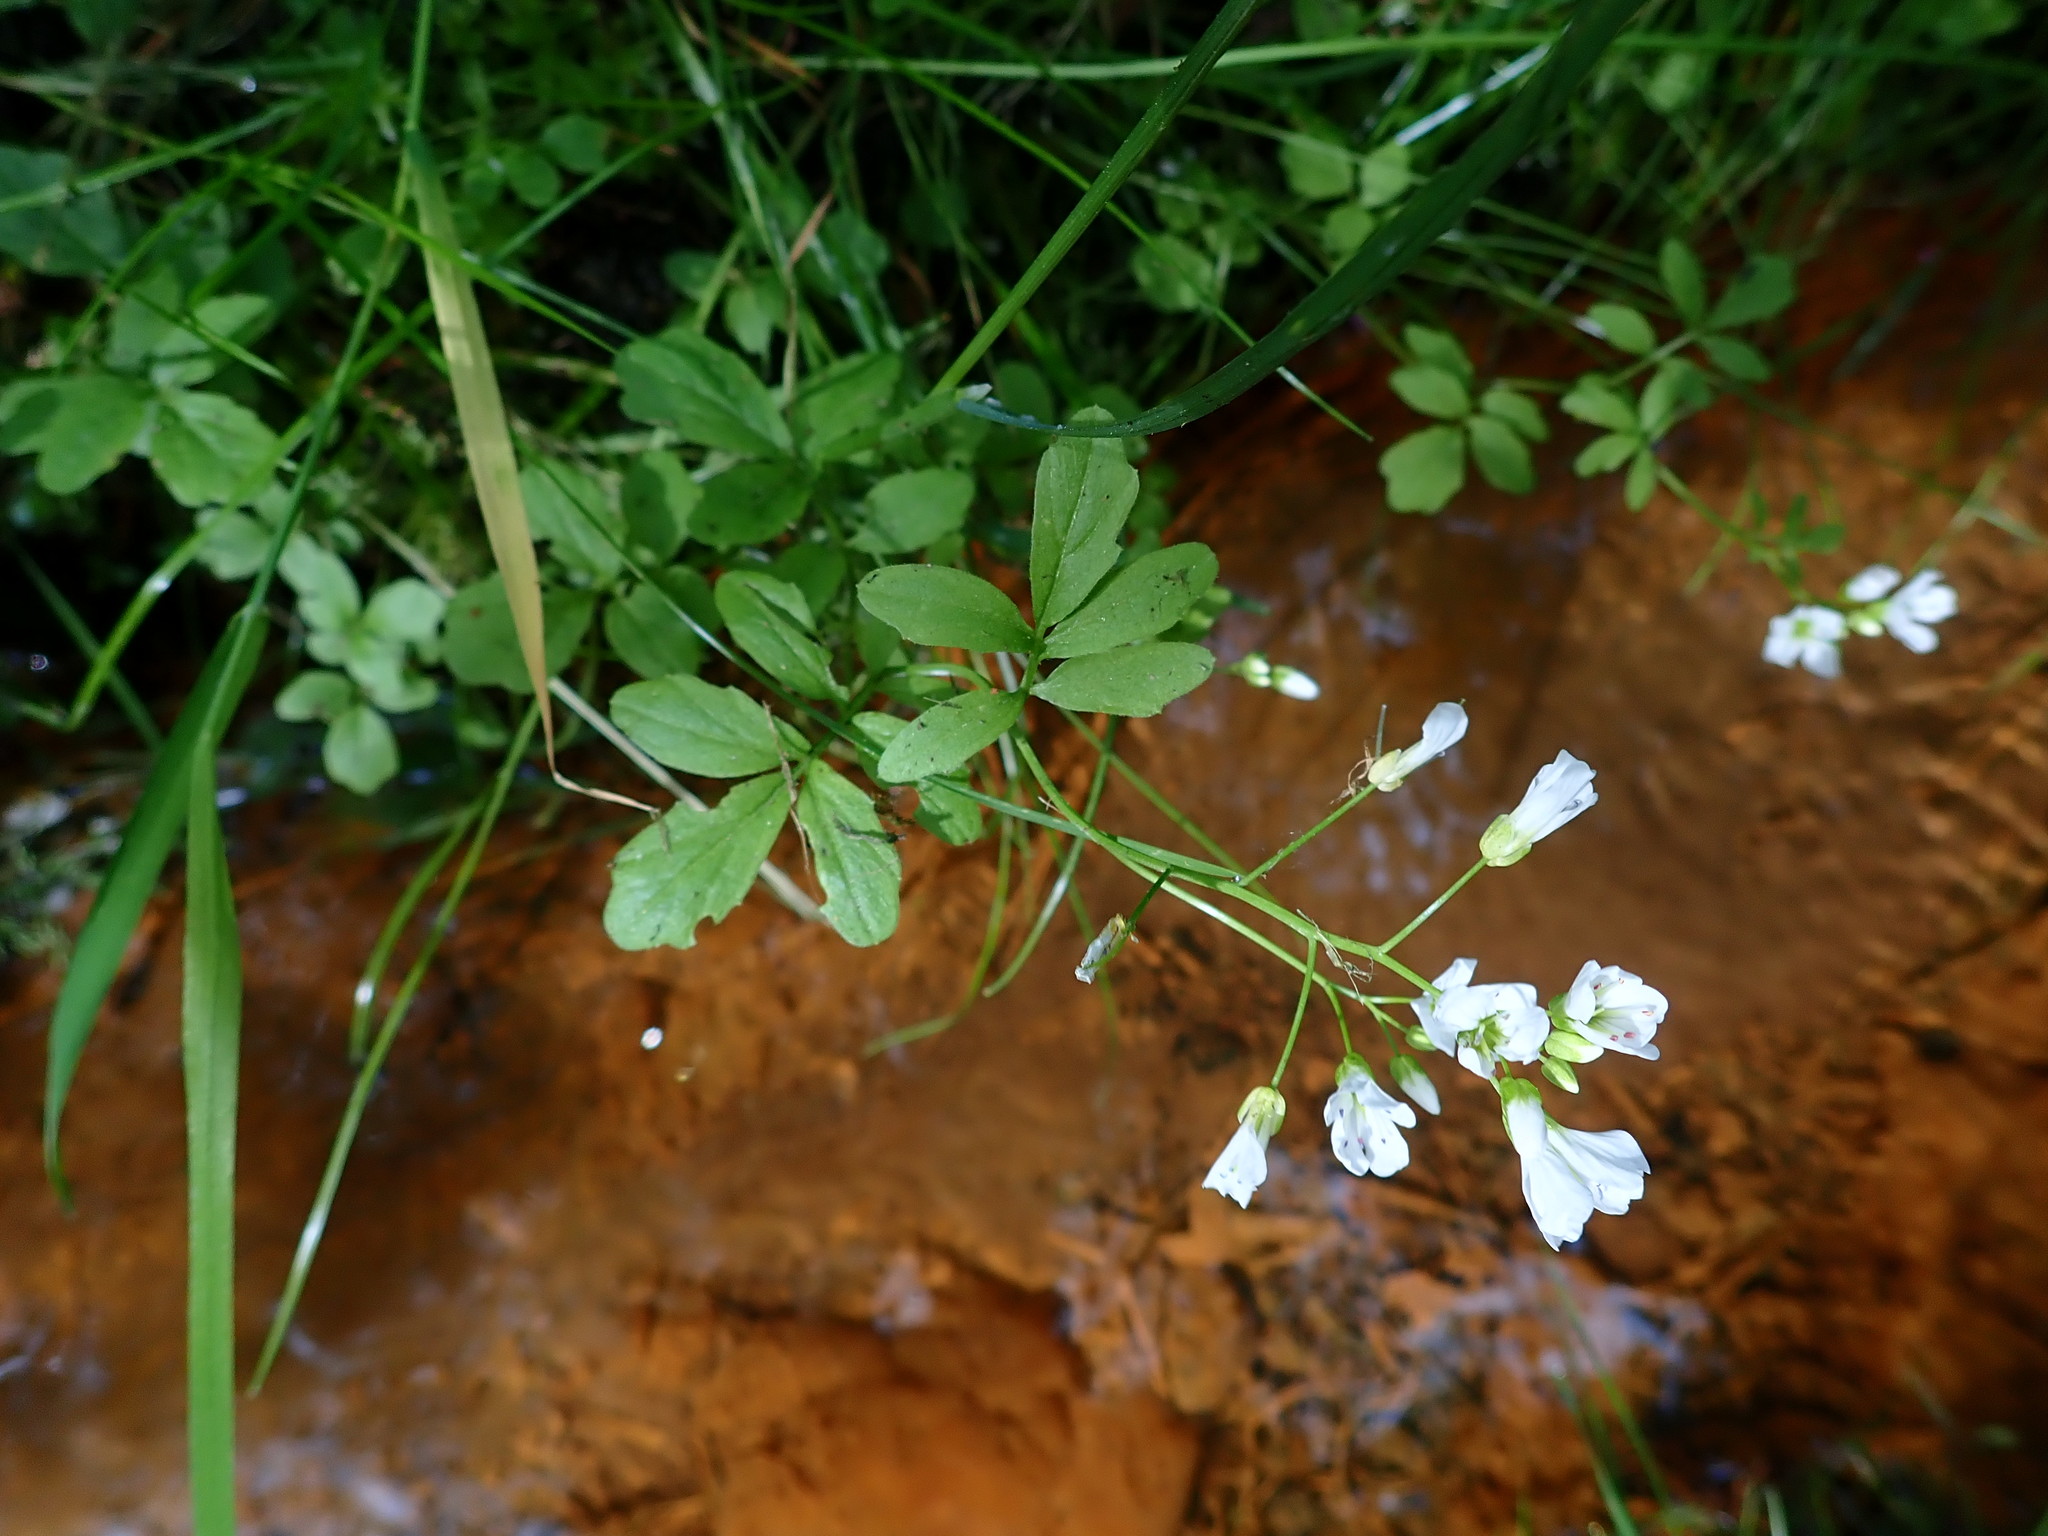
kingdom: Plantae
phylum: Tracheophyta
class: Magnoliopsida
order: Brassicales
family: Brassicaceae
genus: Cardamine
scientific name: Cardamine amara
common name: Large bitter-cress
